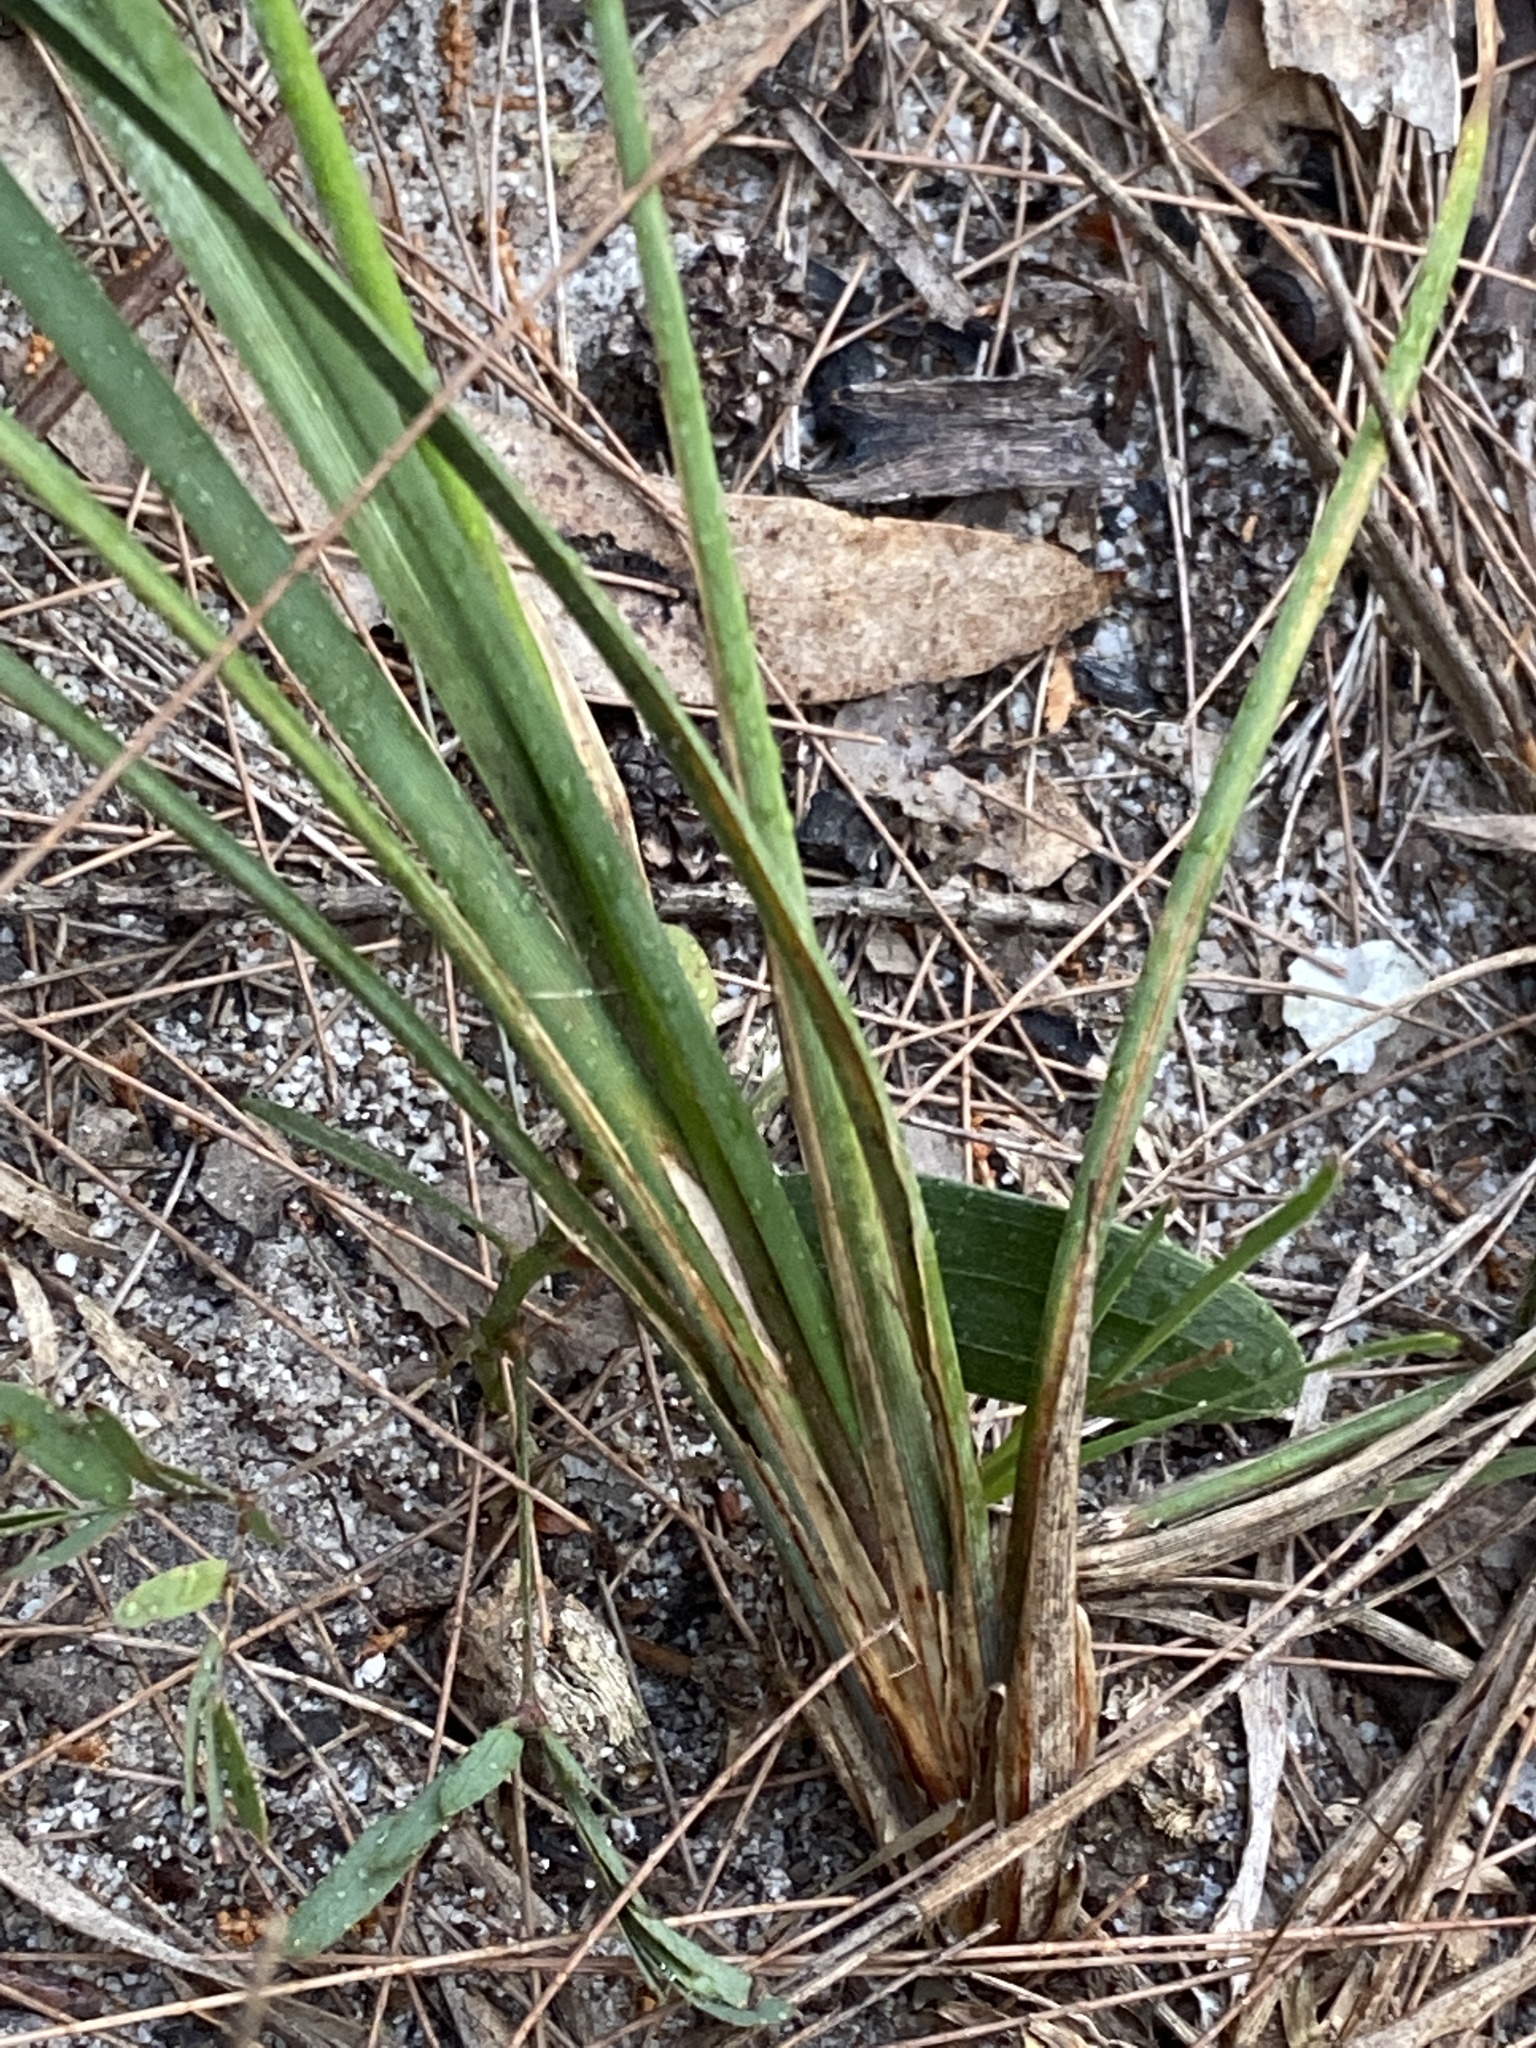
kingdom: Plantae
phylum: Tracheophyta
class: Liliopsida
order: Asparagales
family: Asparagaceae
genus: Lomandra
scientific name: Lomandra multiflora
